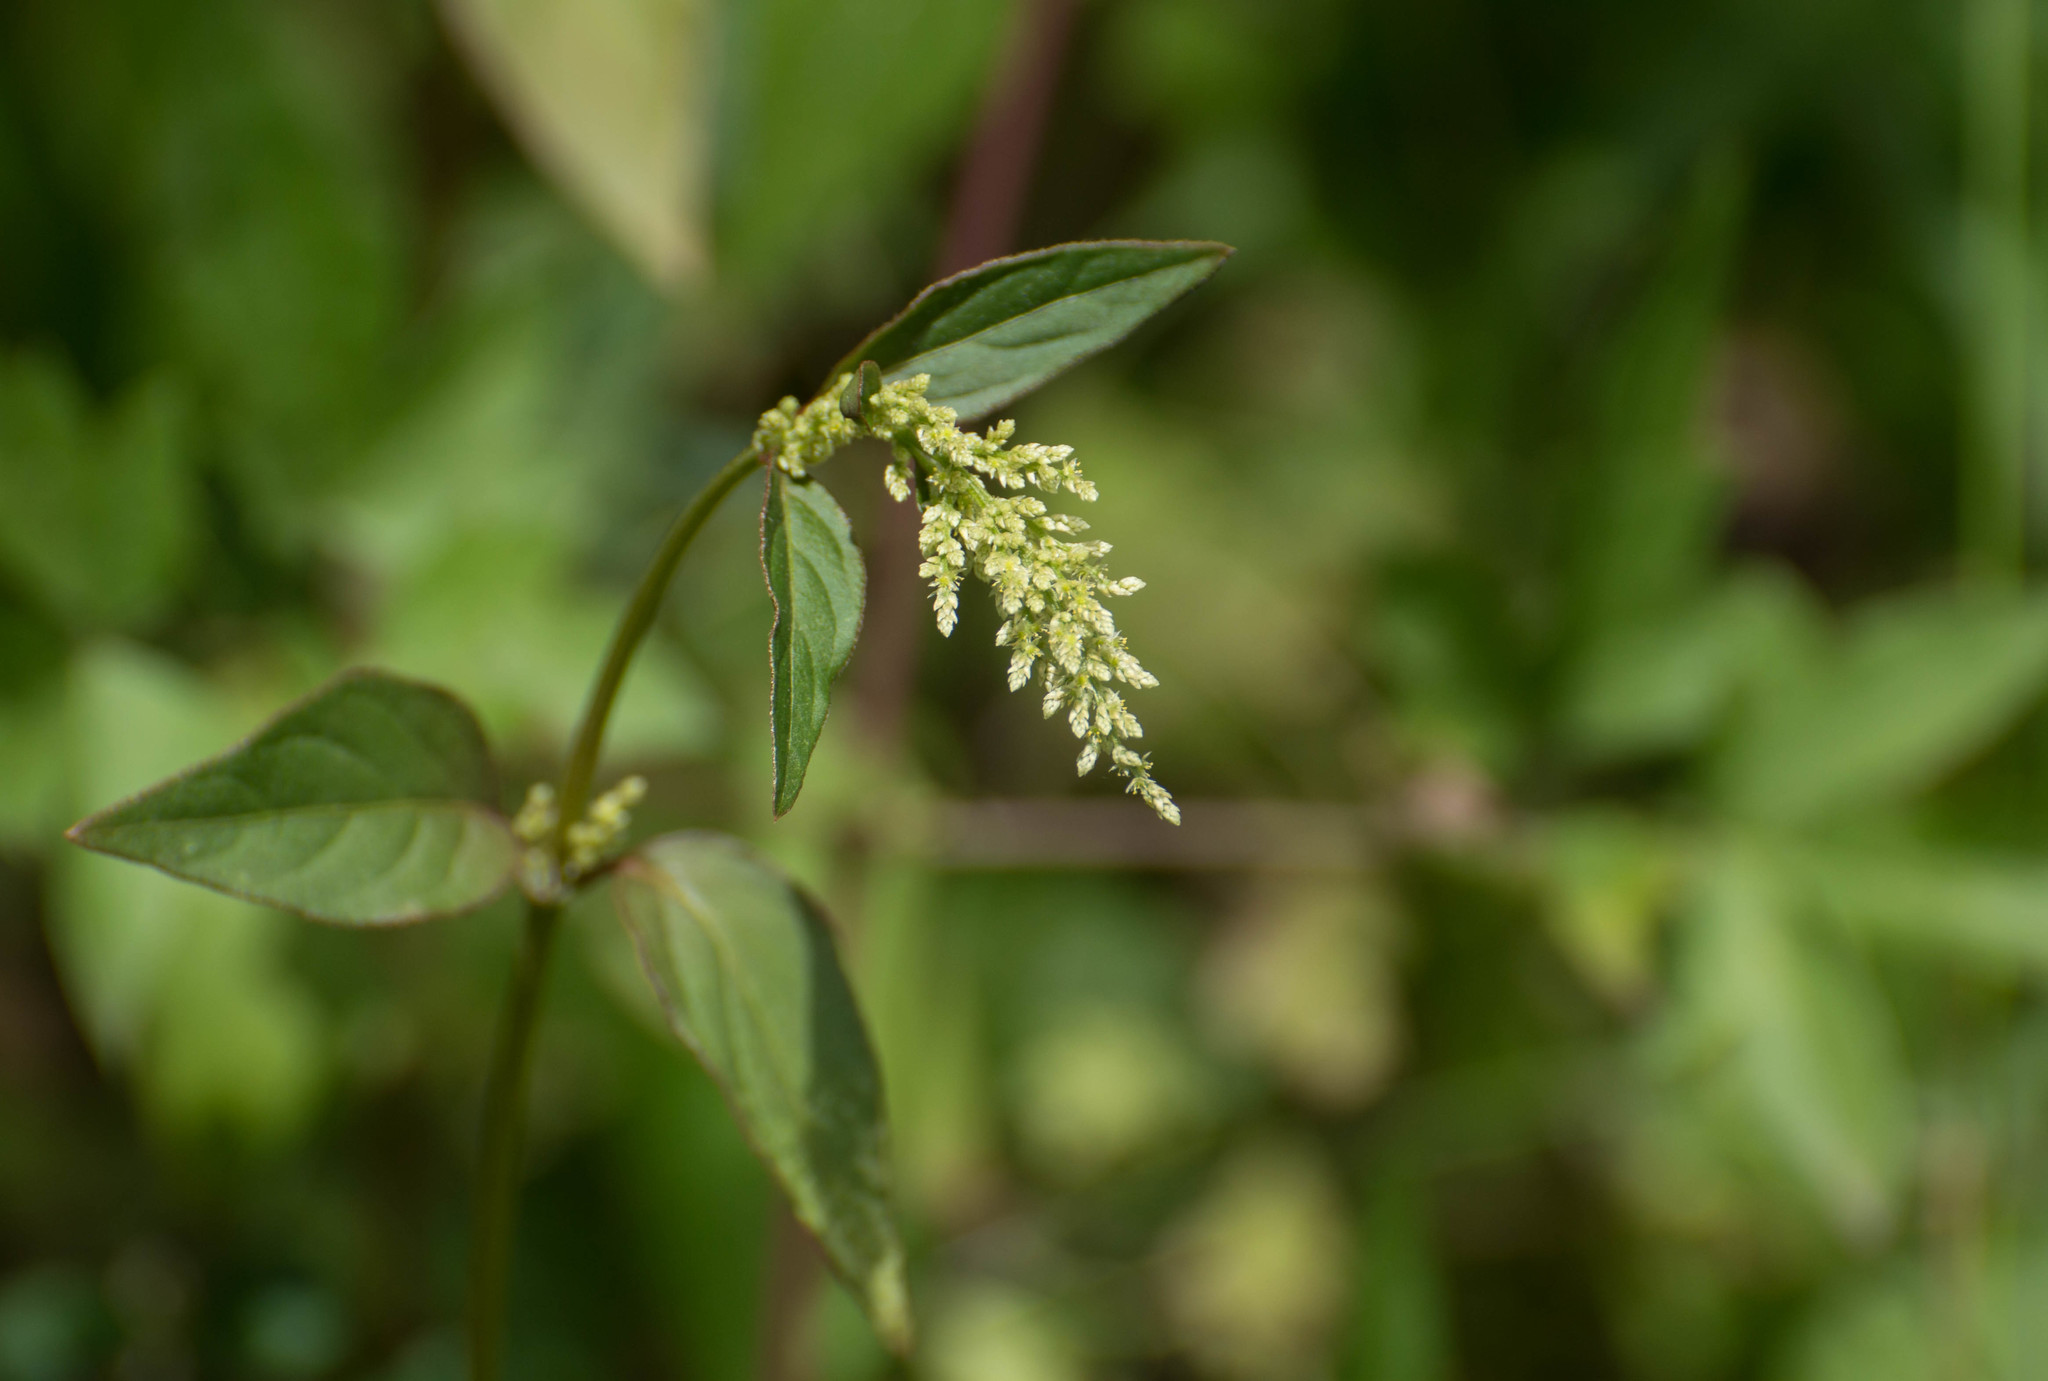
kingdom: Plantae
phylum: Tracheophyta
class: Magnoliopsida
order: Caryophyllales
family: Amaranthaceae
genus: Iresine
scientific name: Iresine diffusa
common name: Juba's-bush
